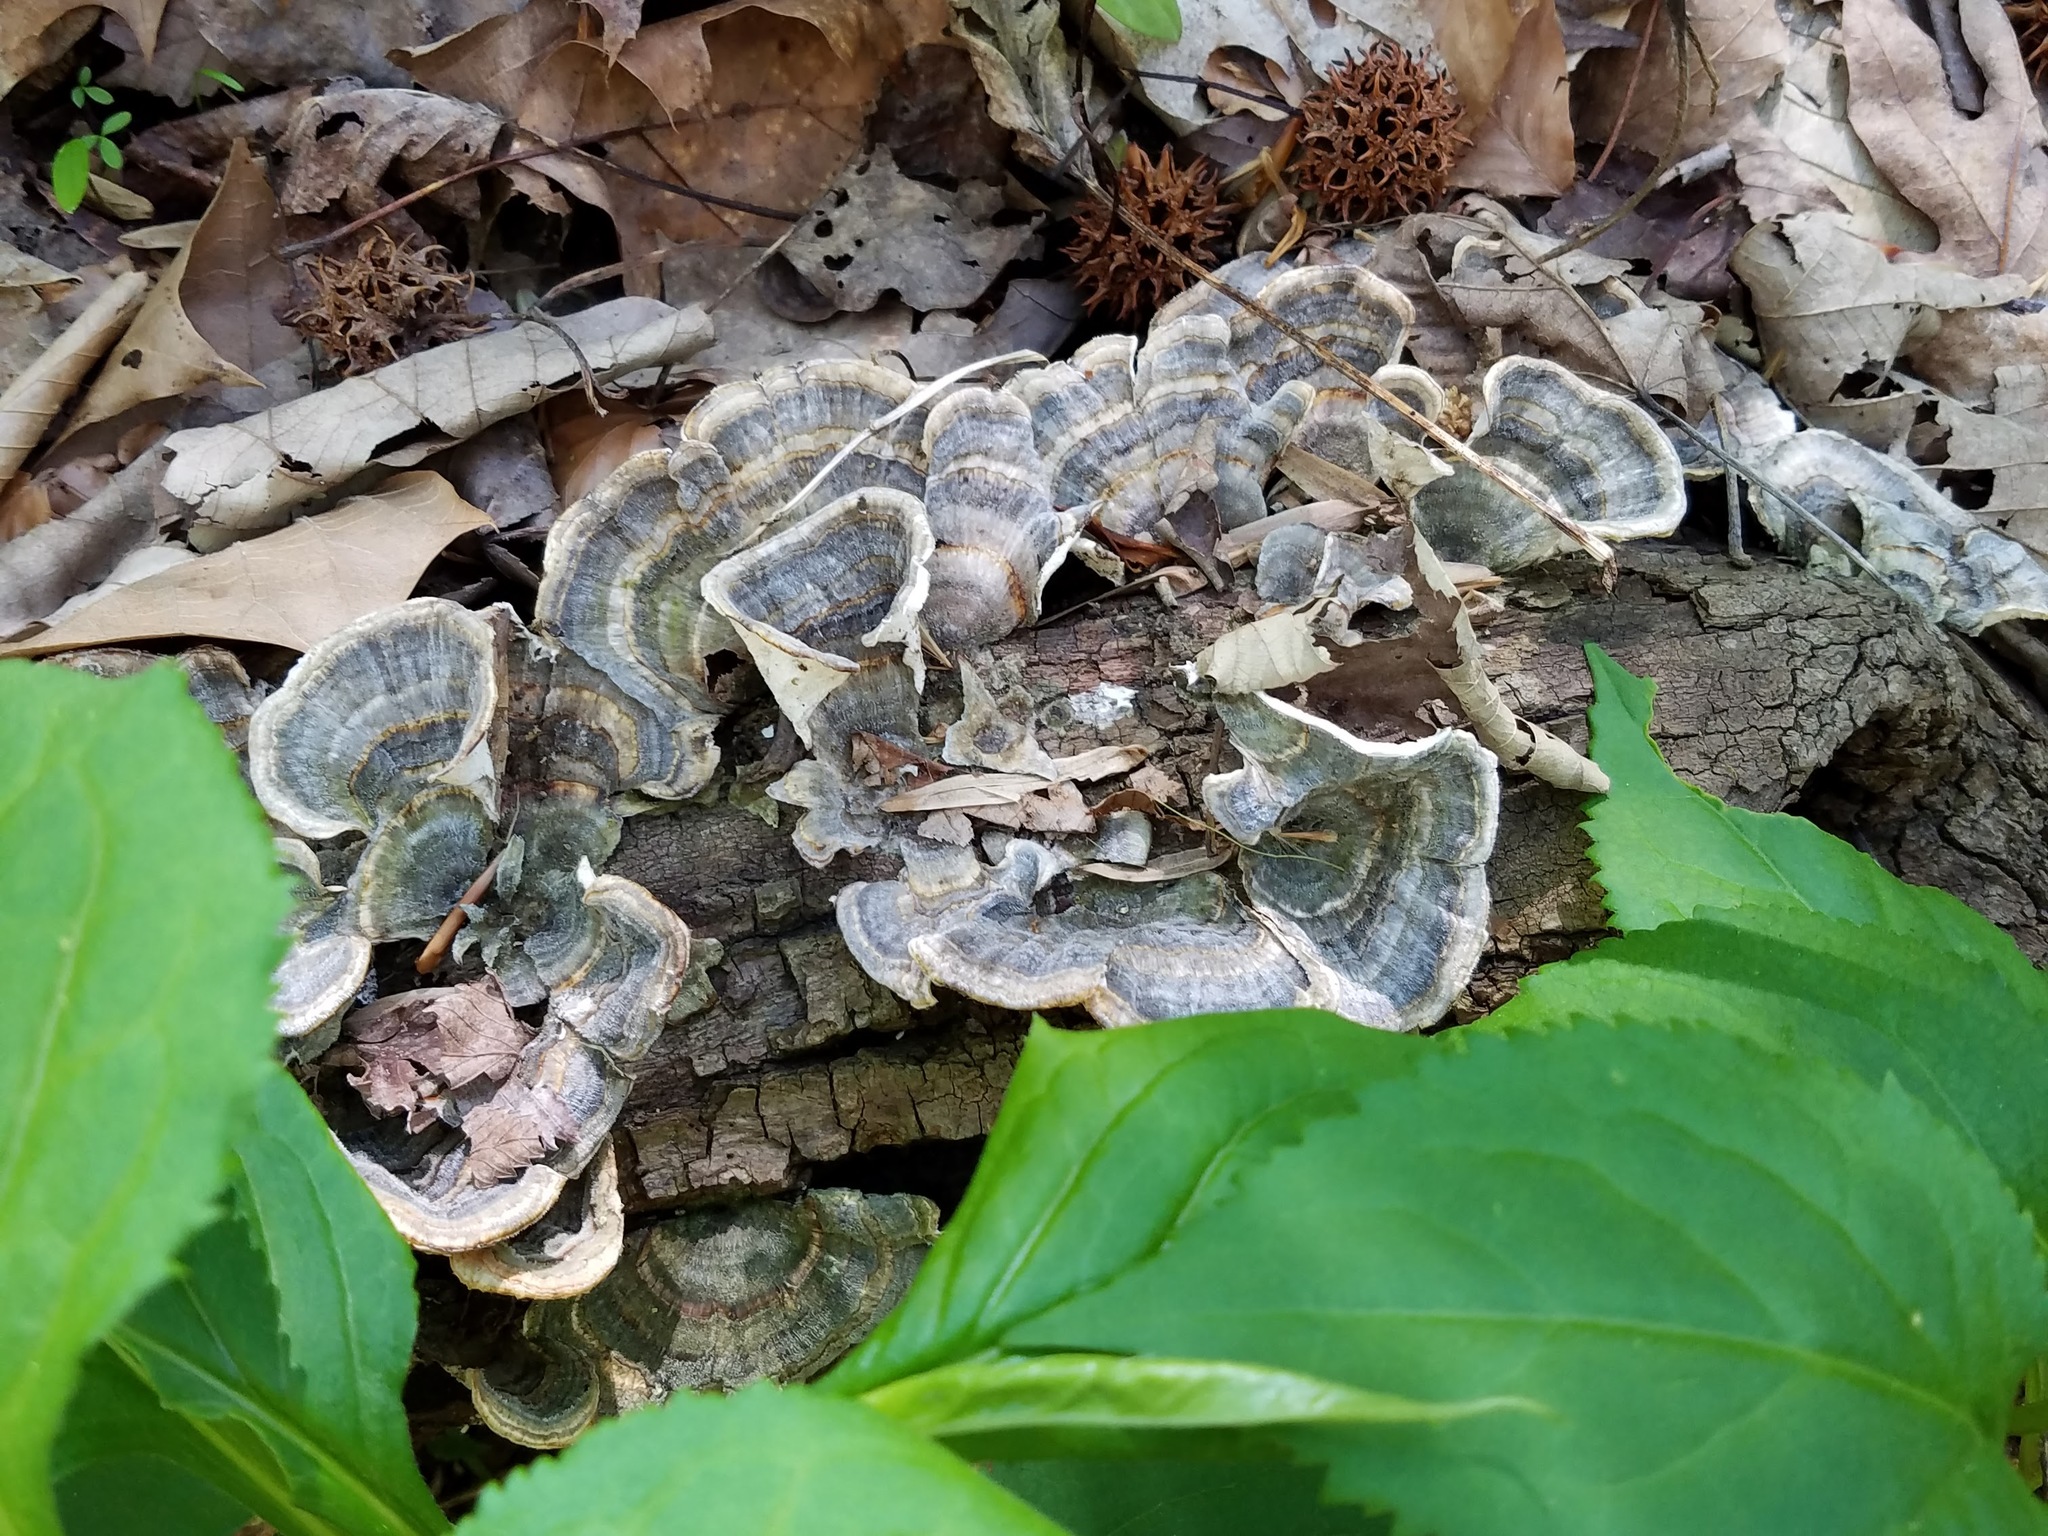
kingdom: Fungi
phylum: Basidiomycota
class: Agaricomycetes
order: Polyporales
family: Polyporaceae
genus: Trametes
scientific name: Trametes versicolor
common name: Turkeytail
